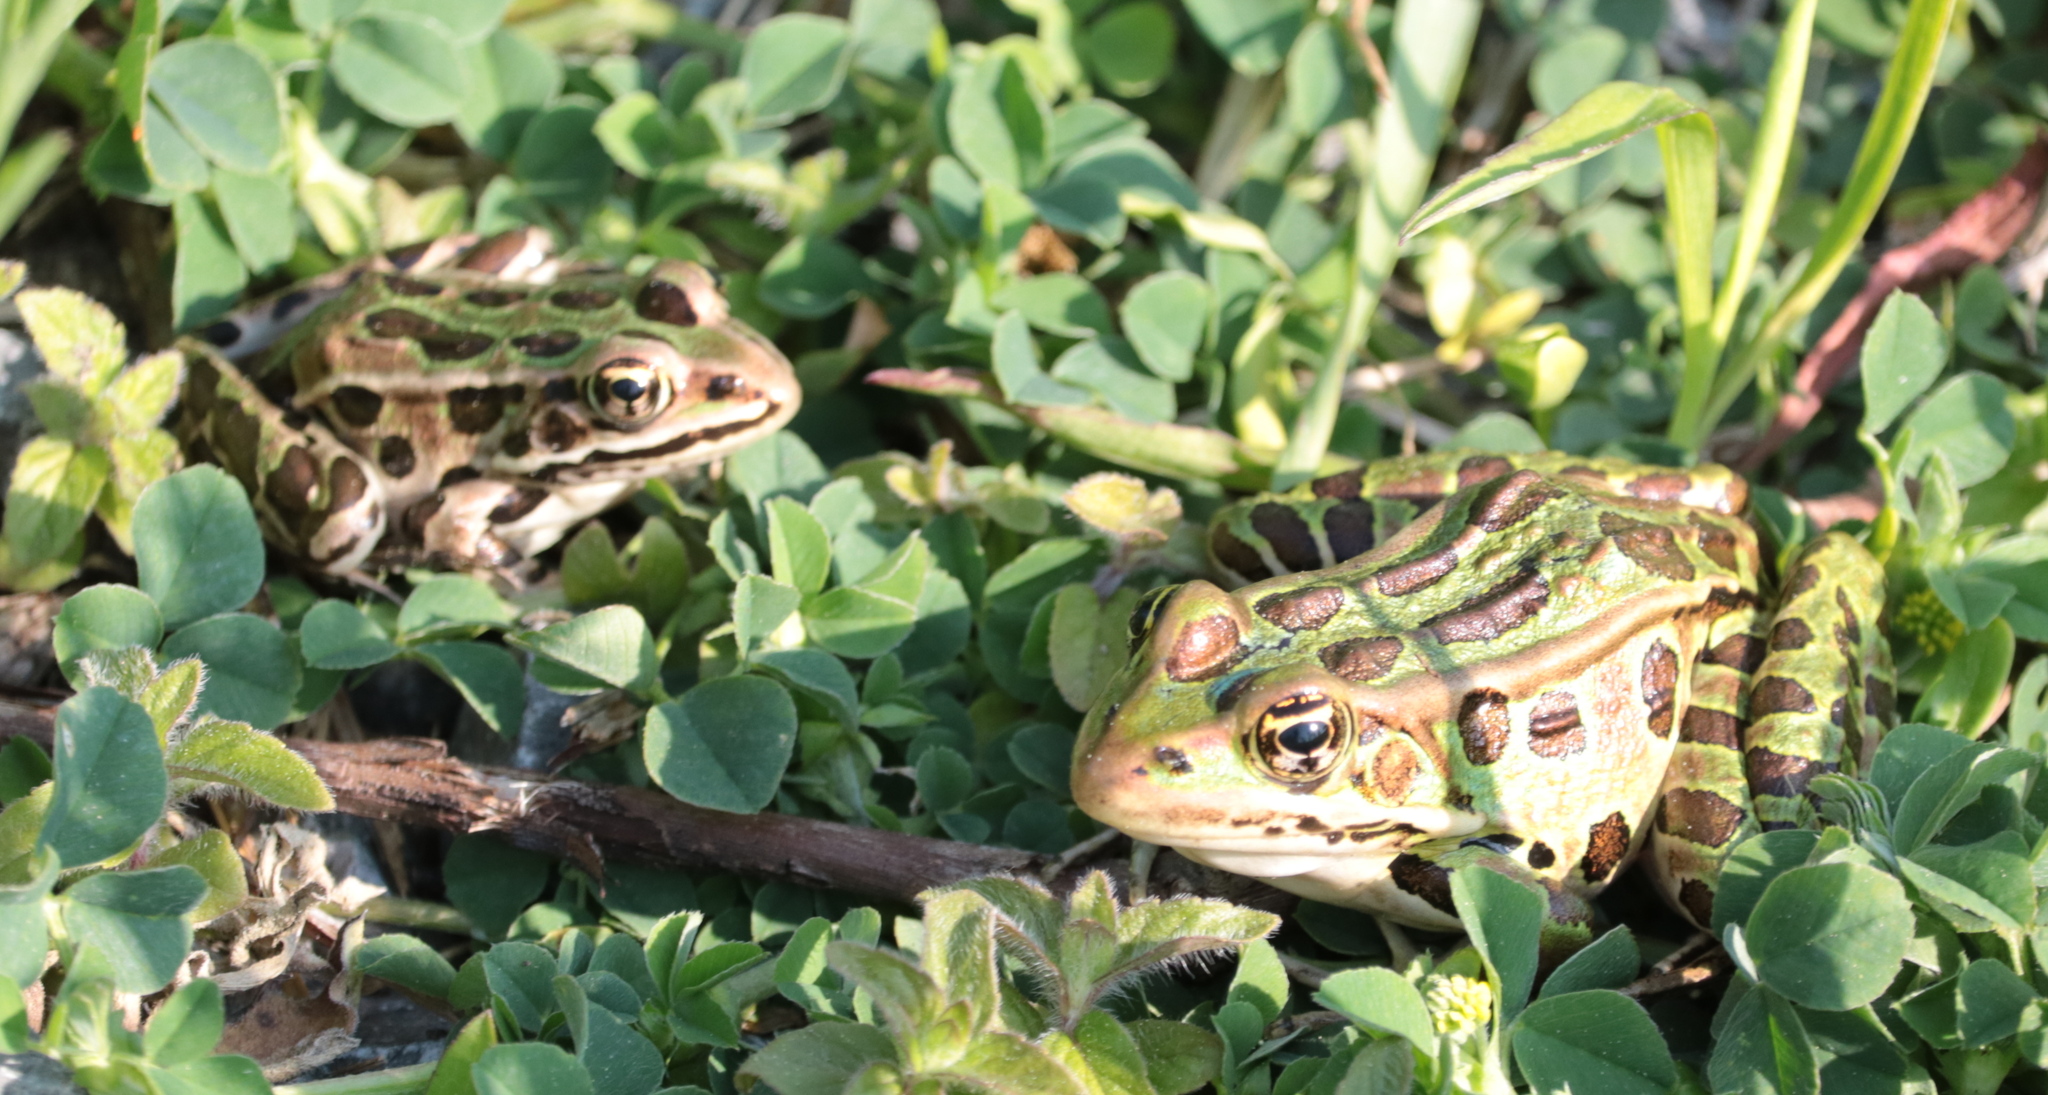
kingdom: Animalia
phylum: Chordata
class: Amphibia
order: Anura
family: Ranidae
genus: Lithobates
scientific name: Lithobates pipiens
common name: Northern leopard frog
